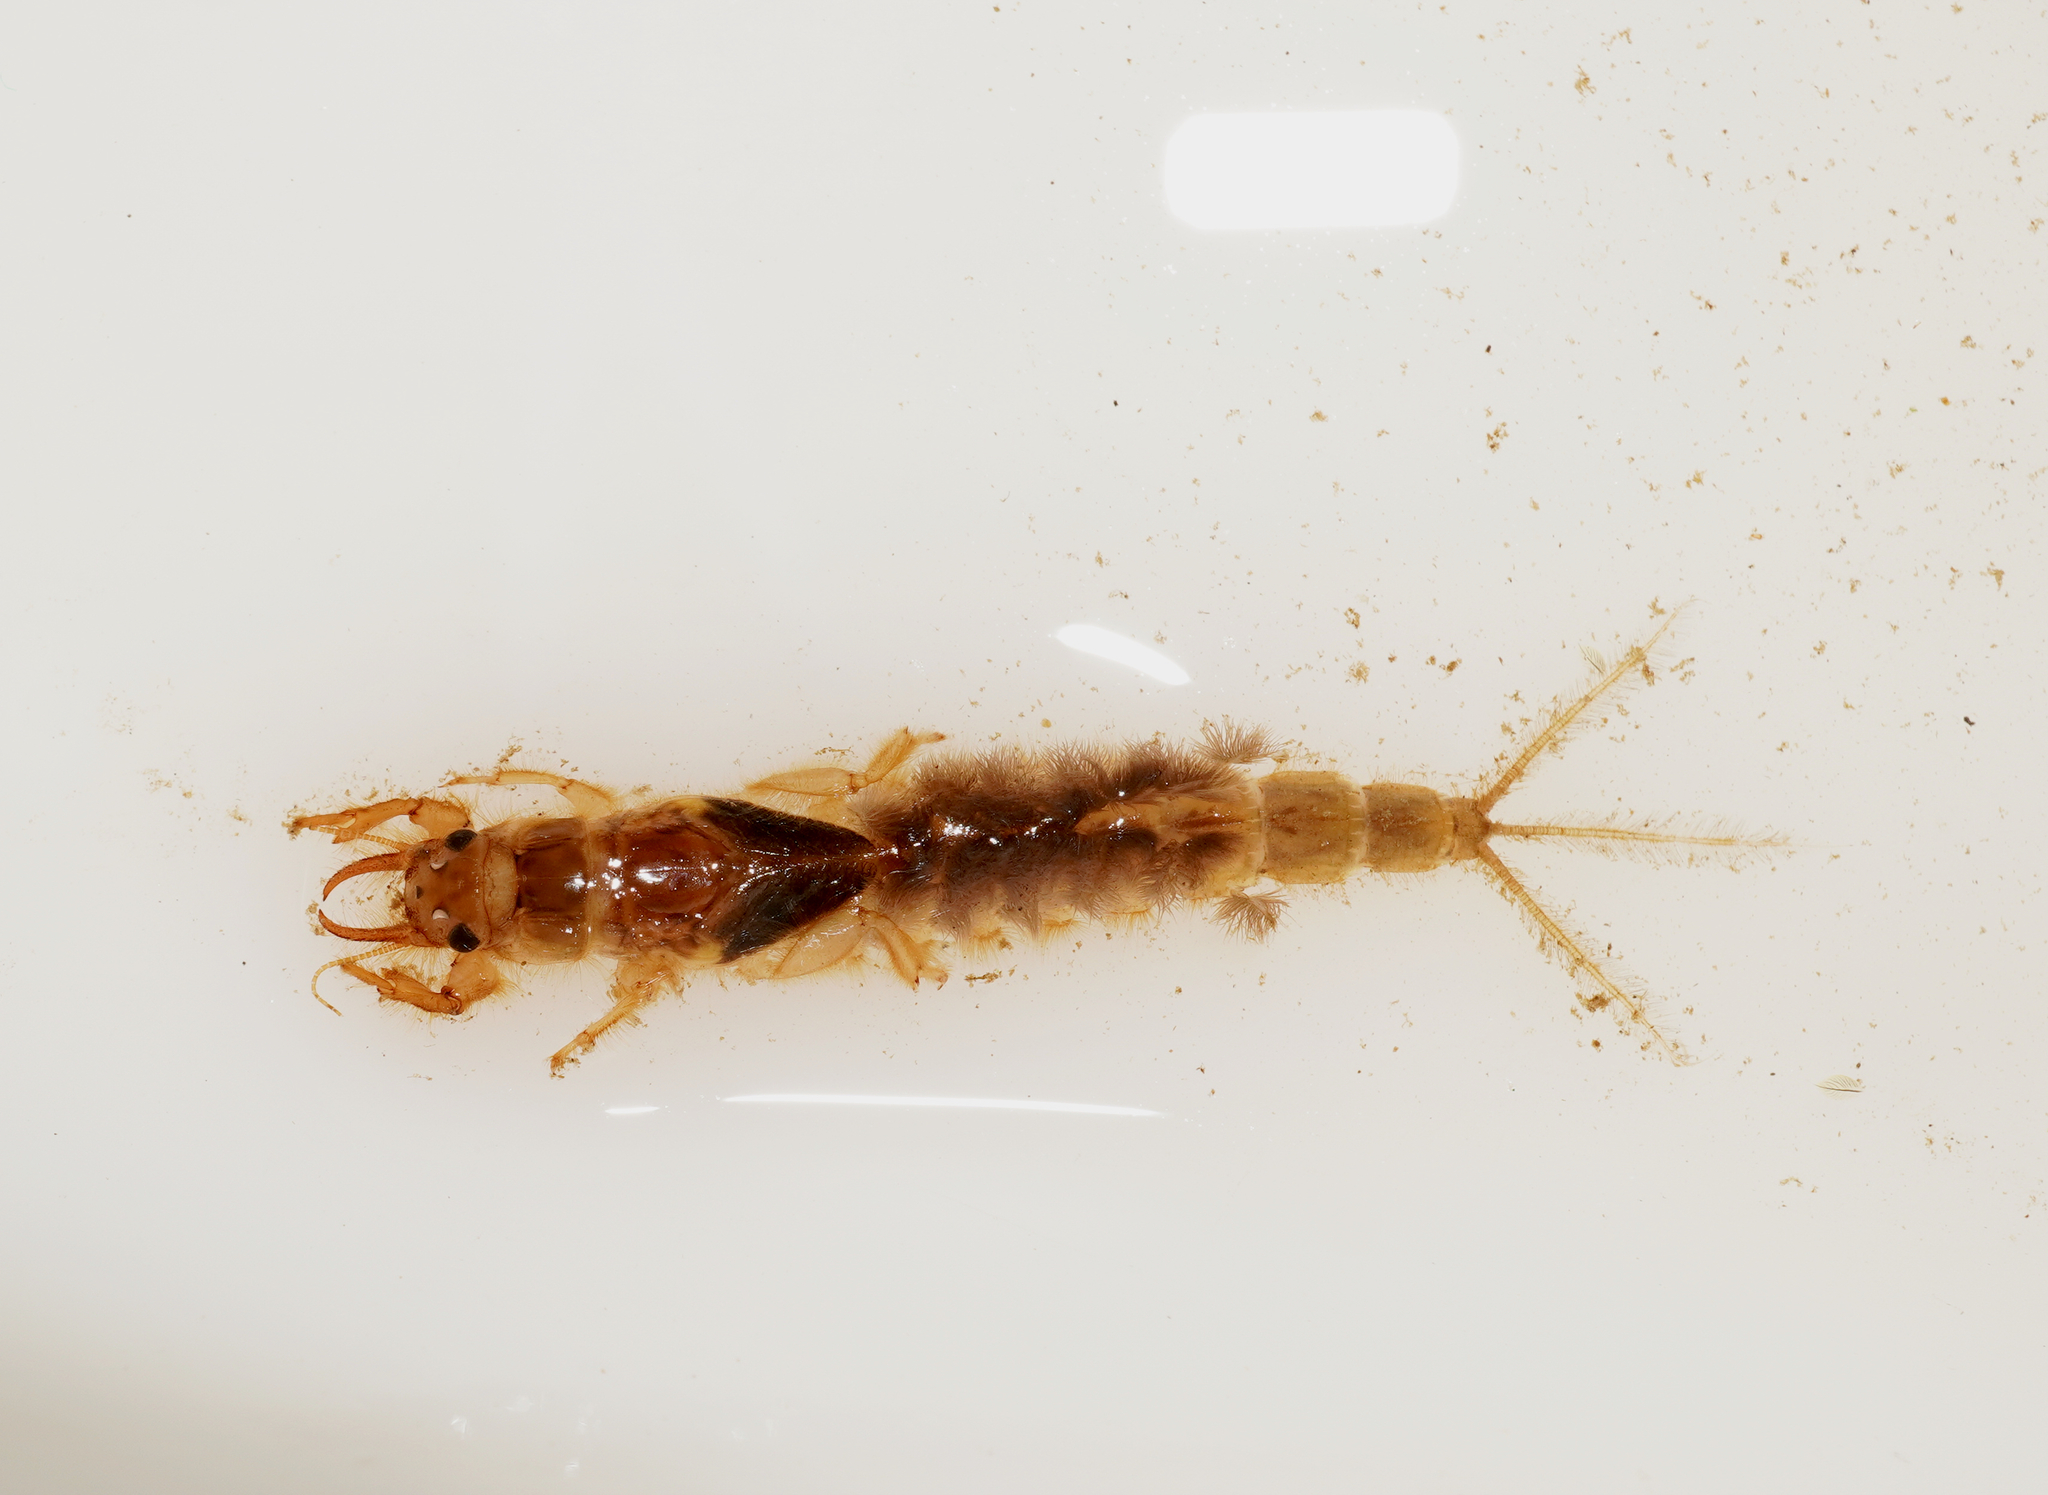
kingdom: Animalia
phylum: Arthropoda
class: Insecta
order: Ephemeroptera
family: Ichthybotidae
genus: Ichthybotus
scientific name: Ichthybotus hudsoni
